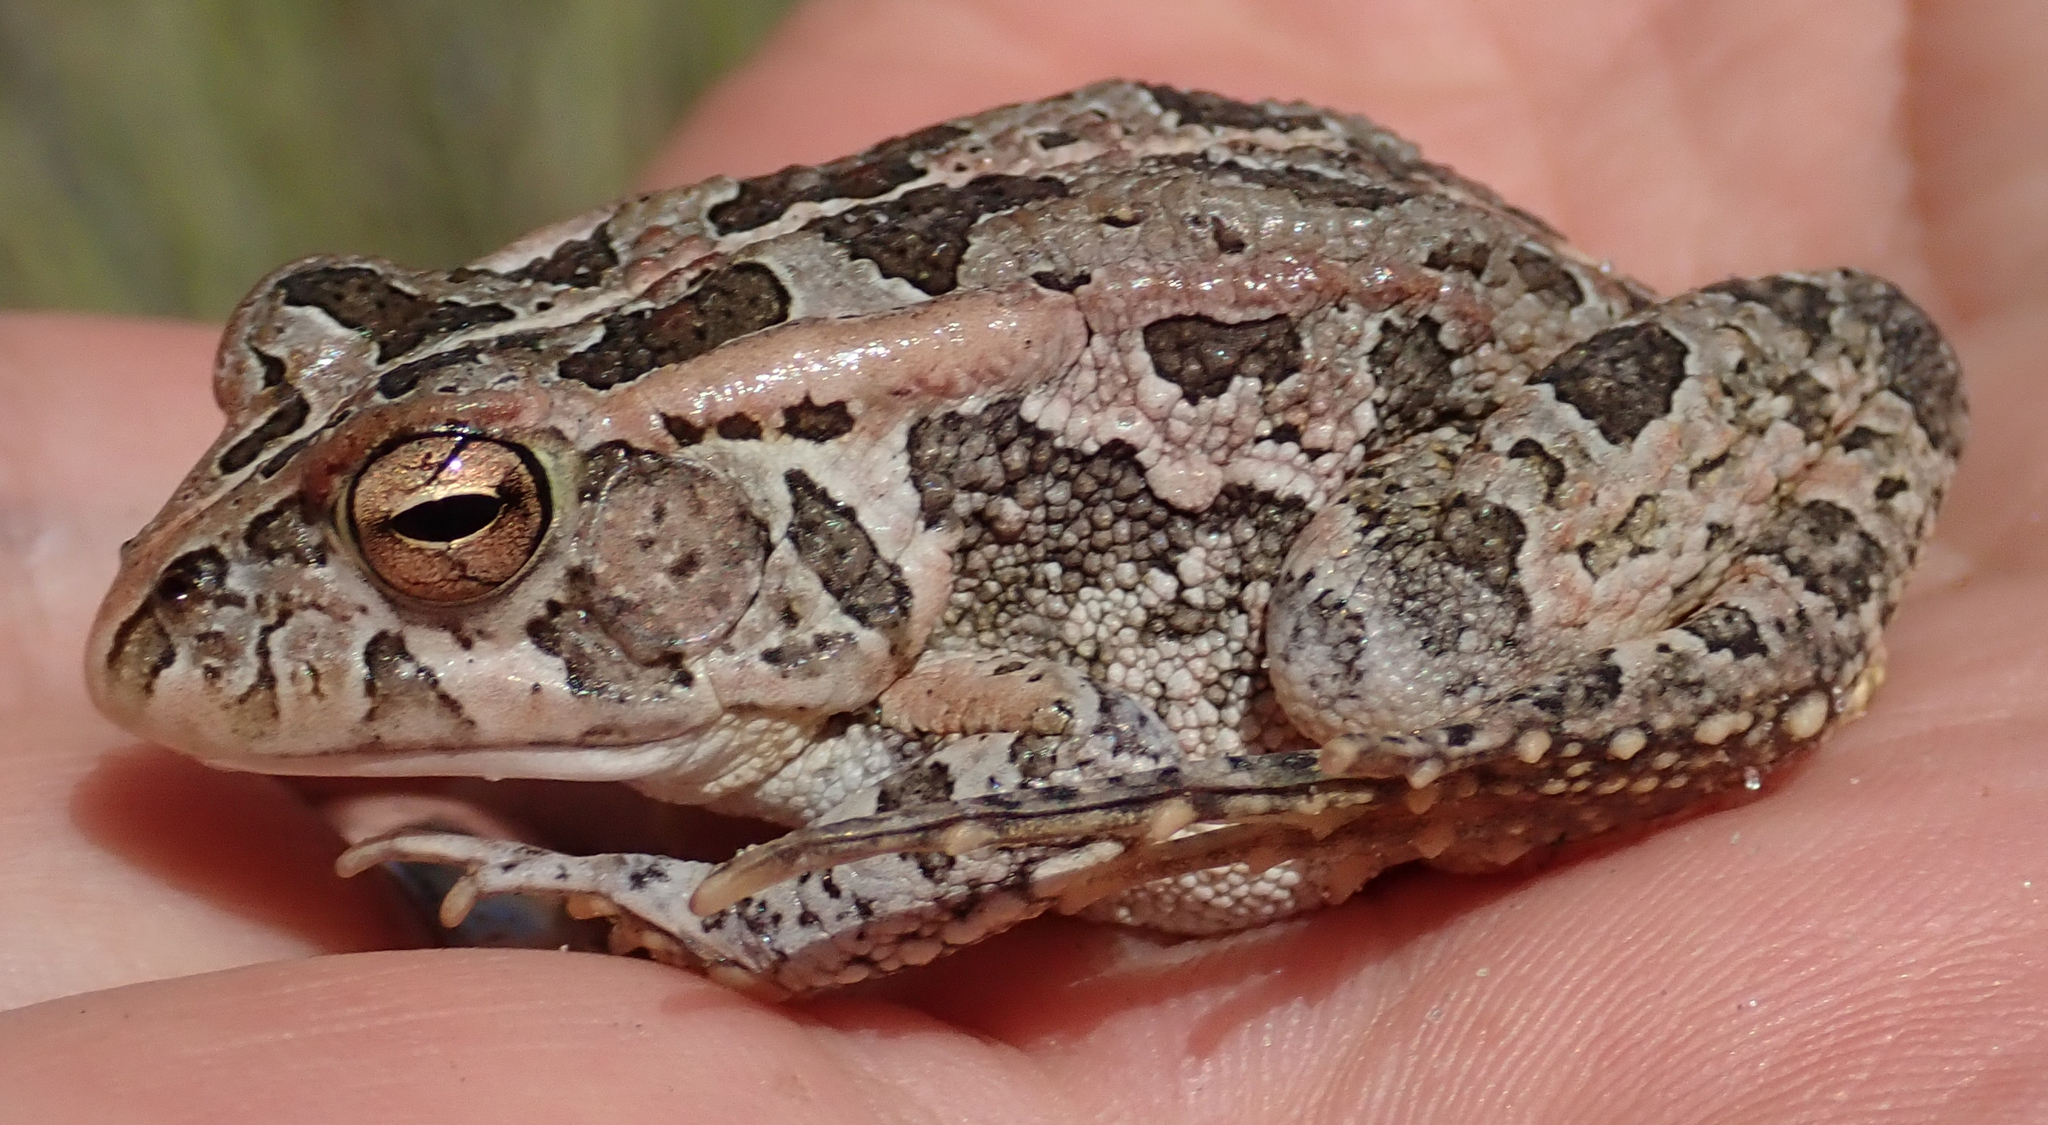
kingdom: Animalia
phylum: Chordata
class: Amphibia
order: Anura
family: Bufonidae
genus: Sclerophrys
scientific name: Sclerophrys lemairii
